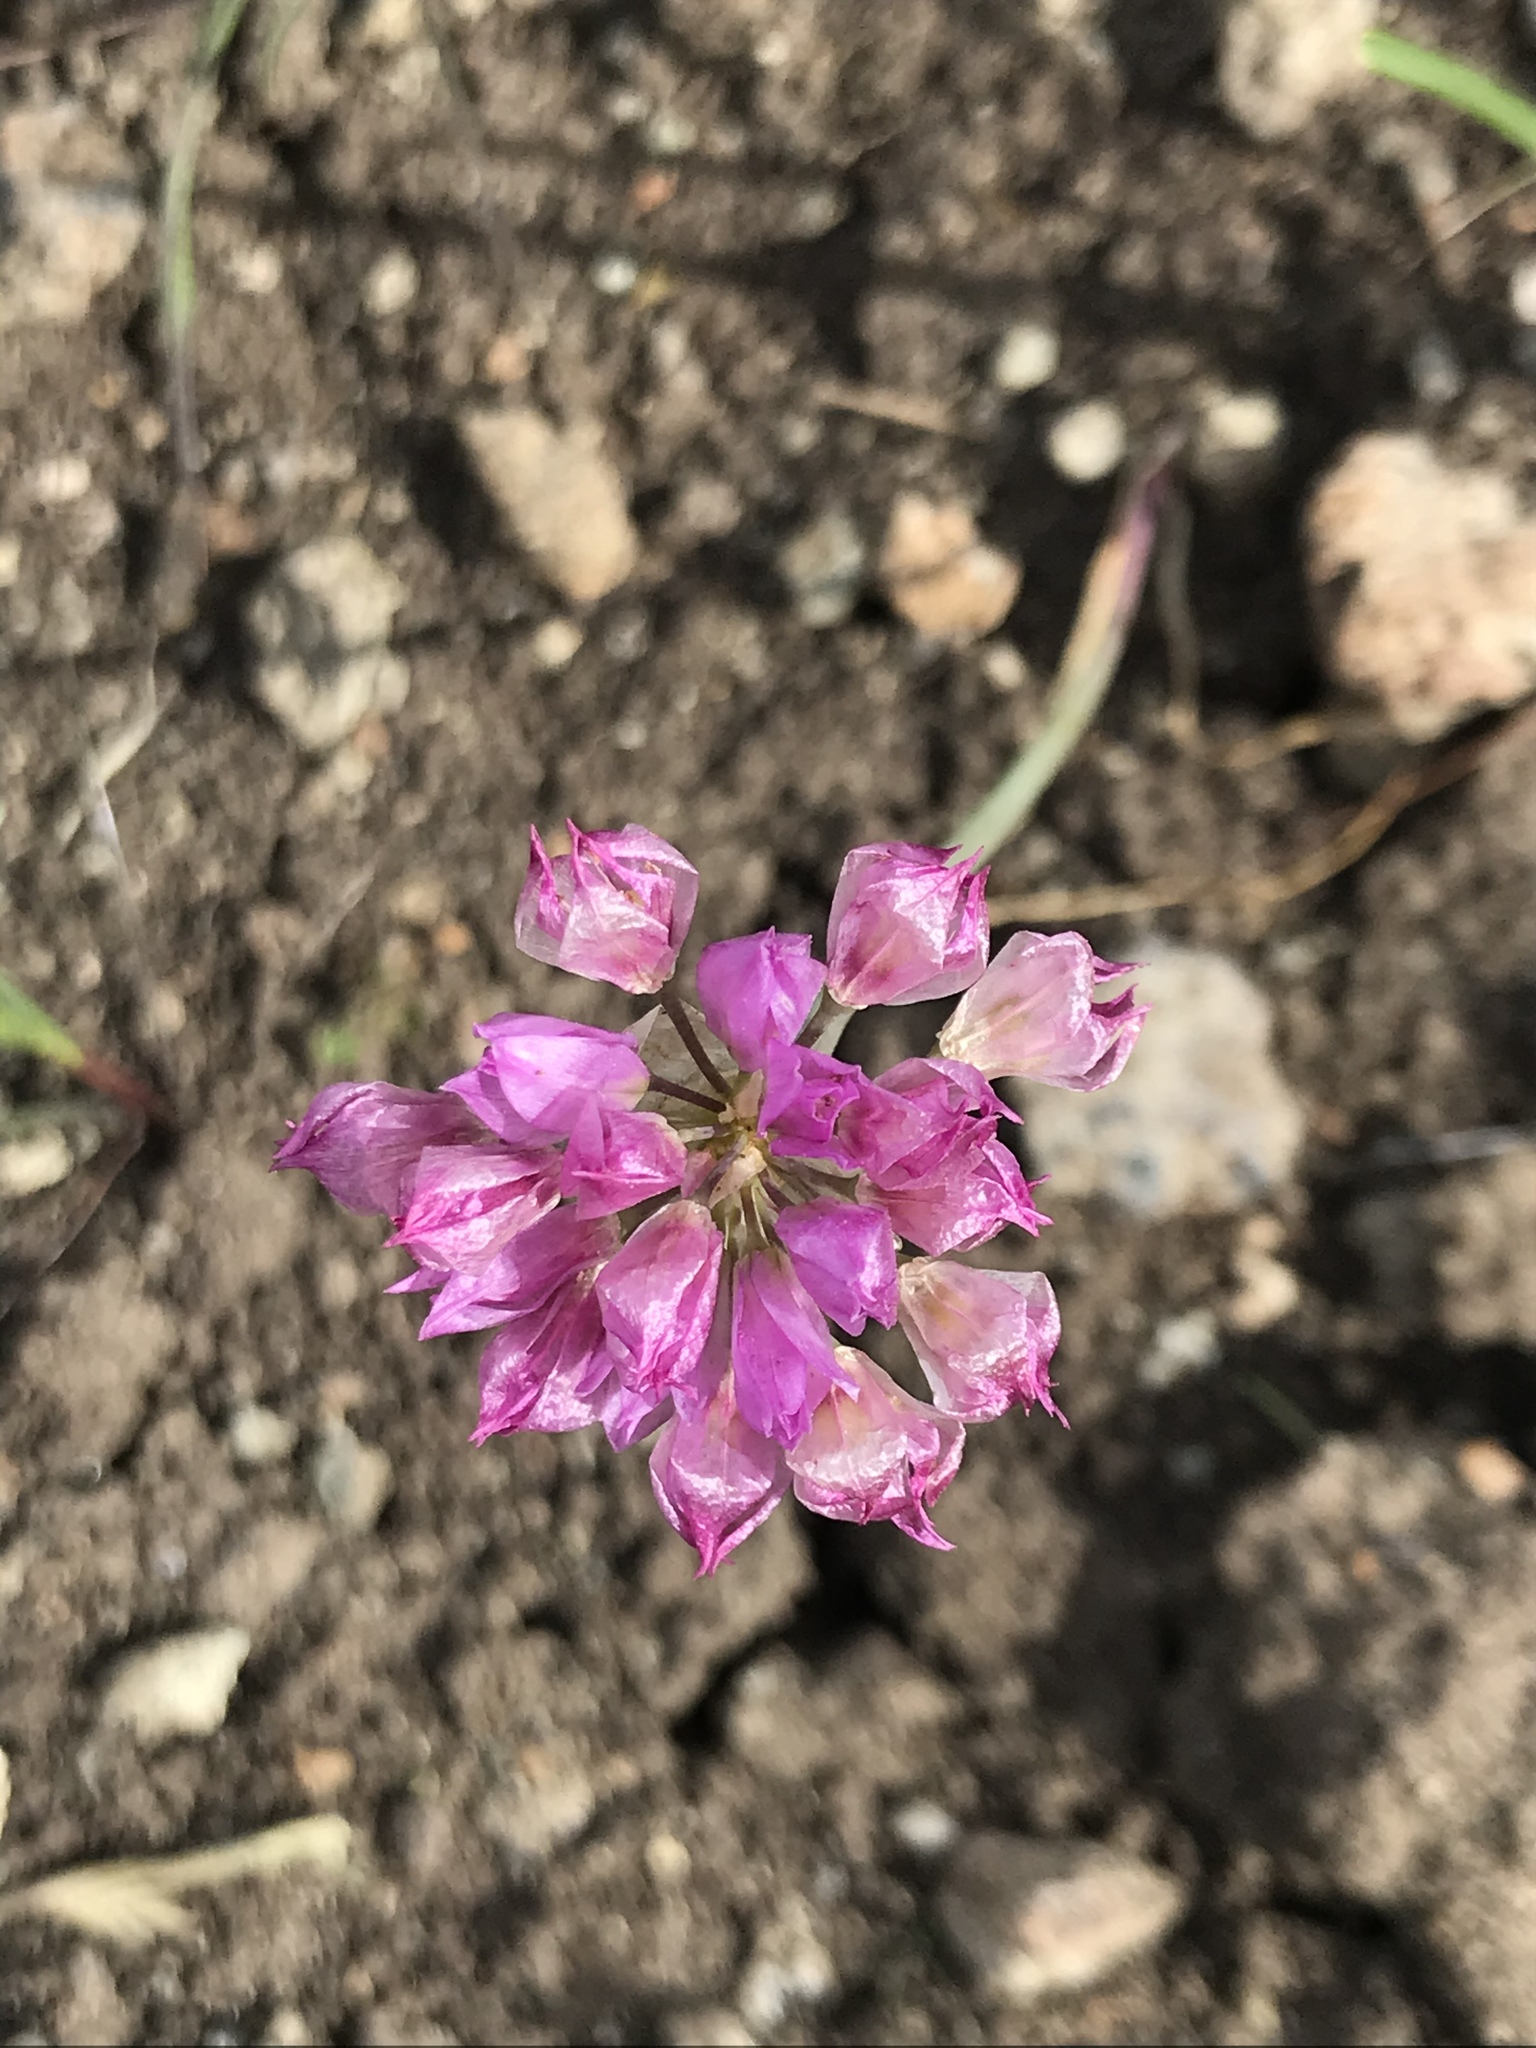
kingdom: Plantae
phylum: Tracheophyta
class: Liliopsida
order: Asparagales
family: Amaryllidaceae
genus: Allium
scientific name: Allium serra
